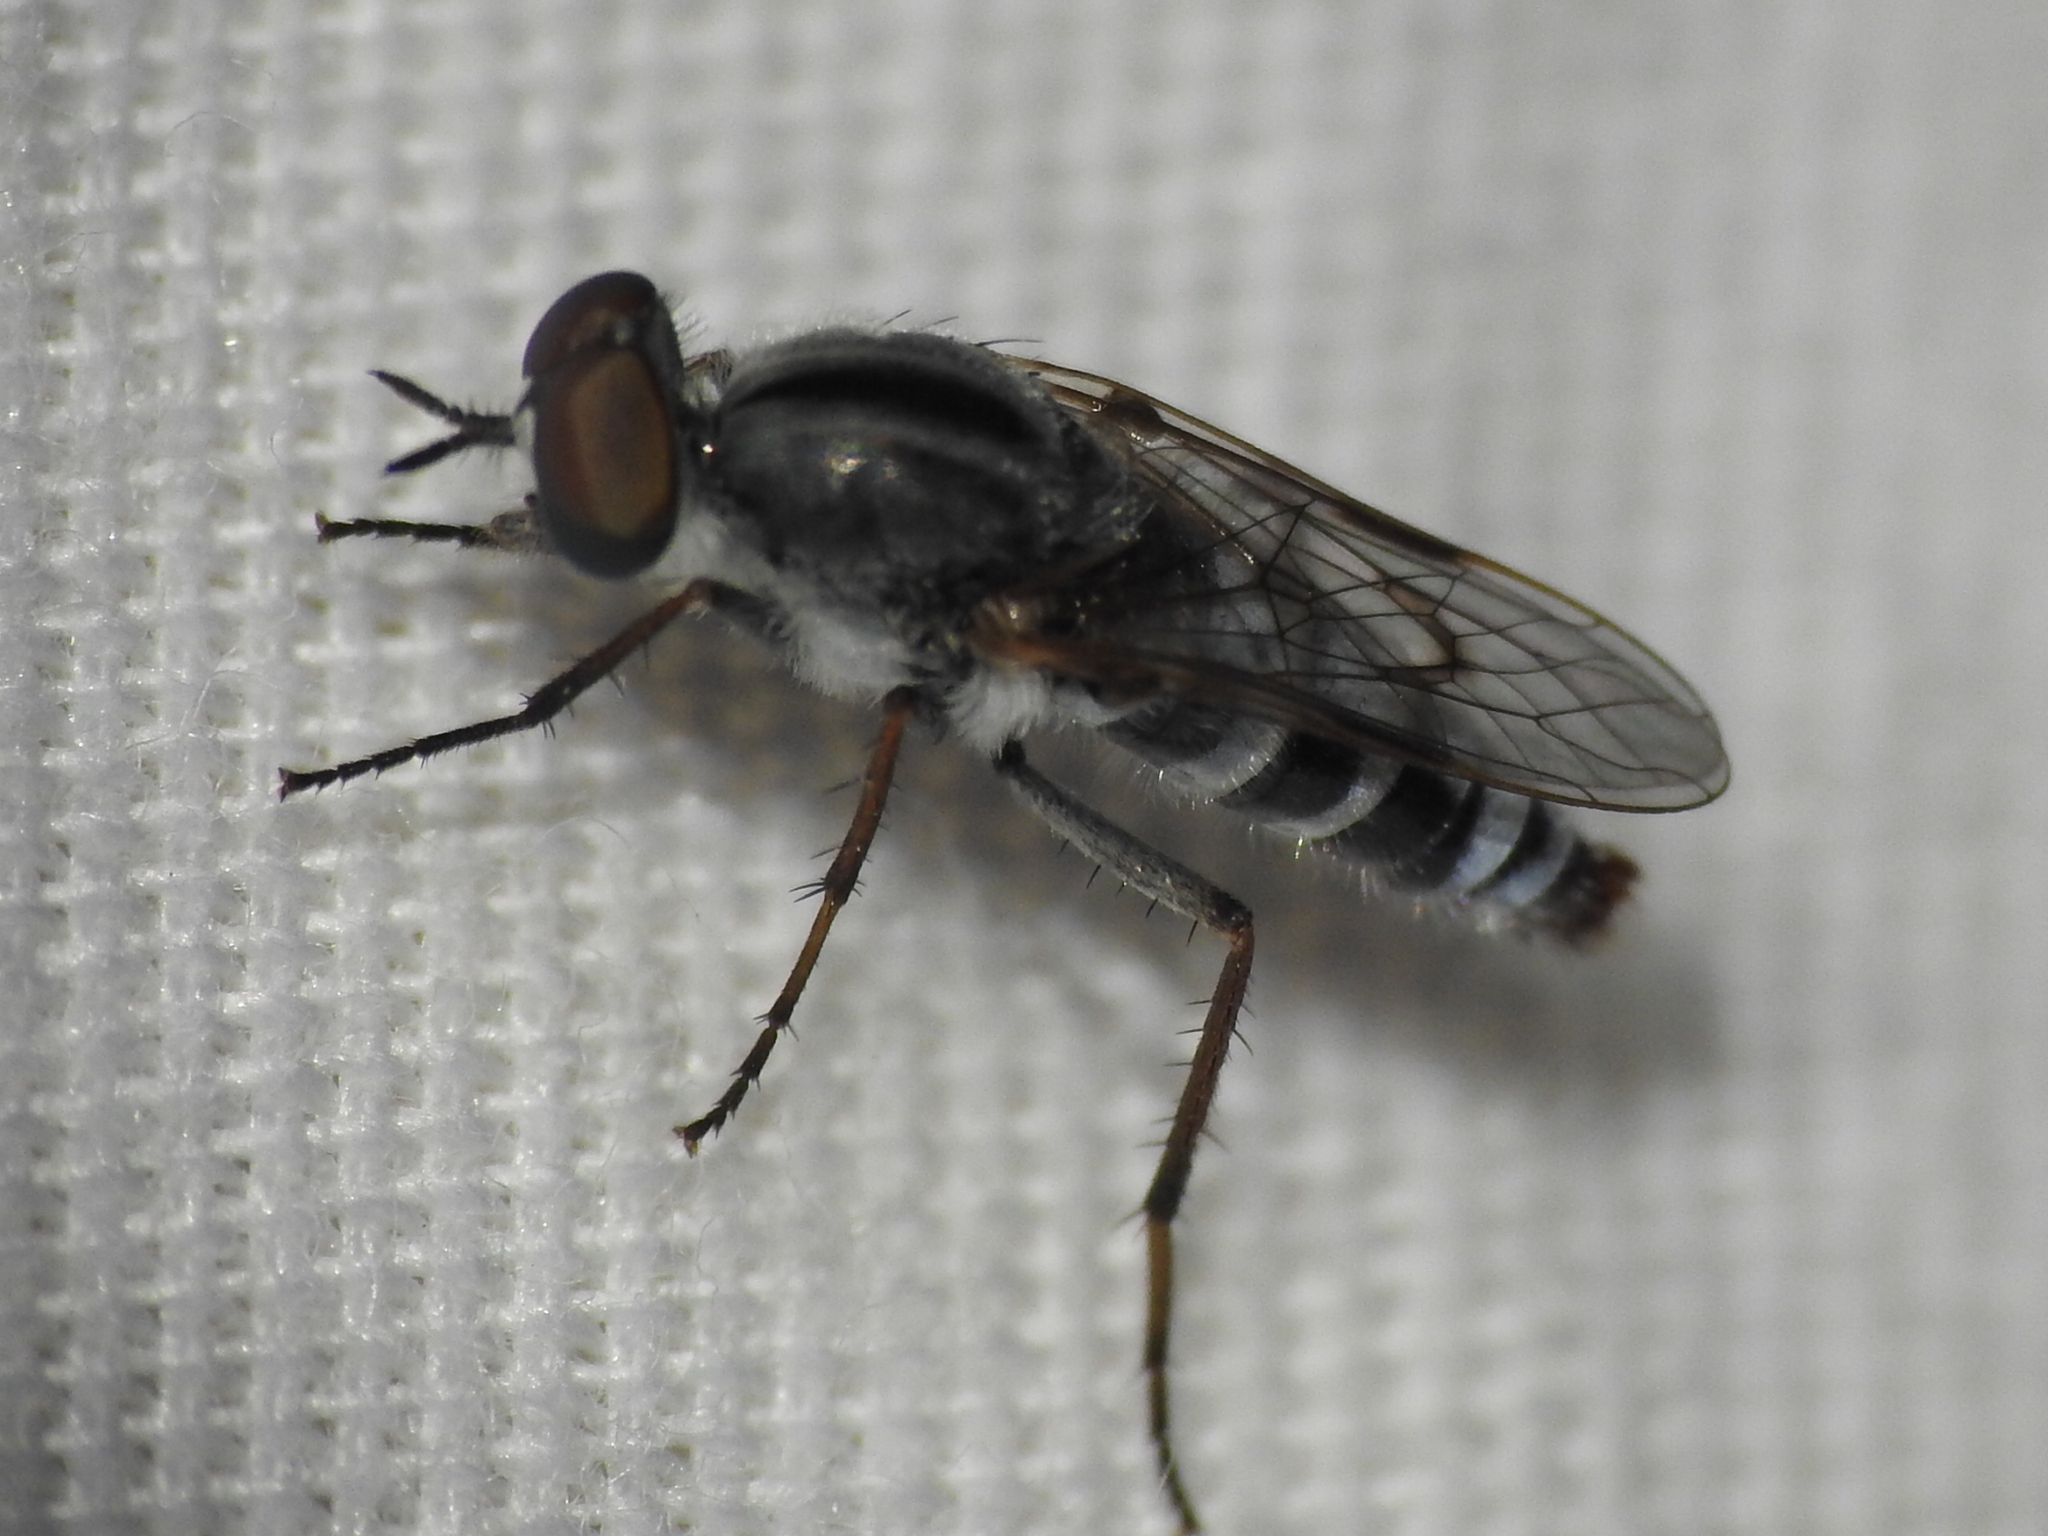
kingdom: Animalia
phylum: Arthropoda
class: Insecta
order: Diptera
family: Therevidae
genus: Ozodiceromya
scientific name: Ozodiceromya notata
